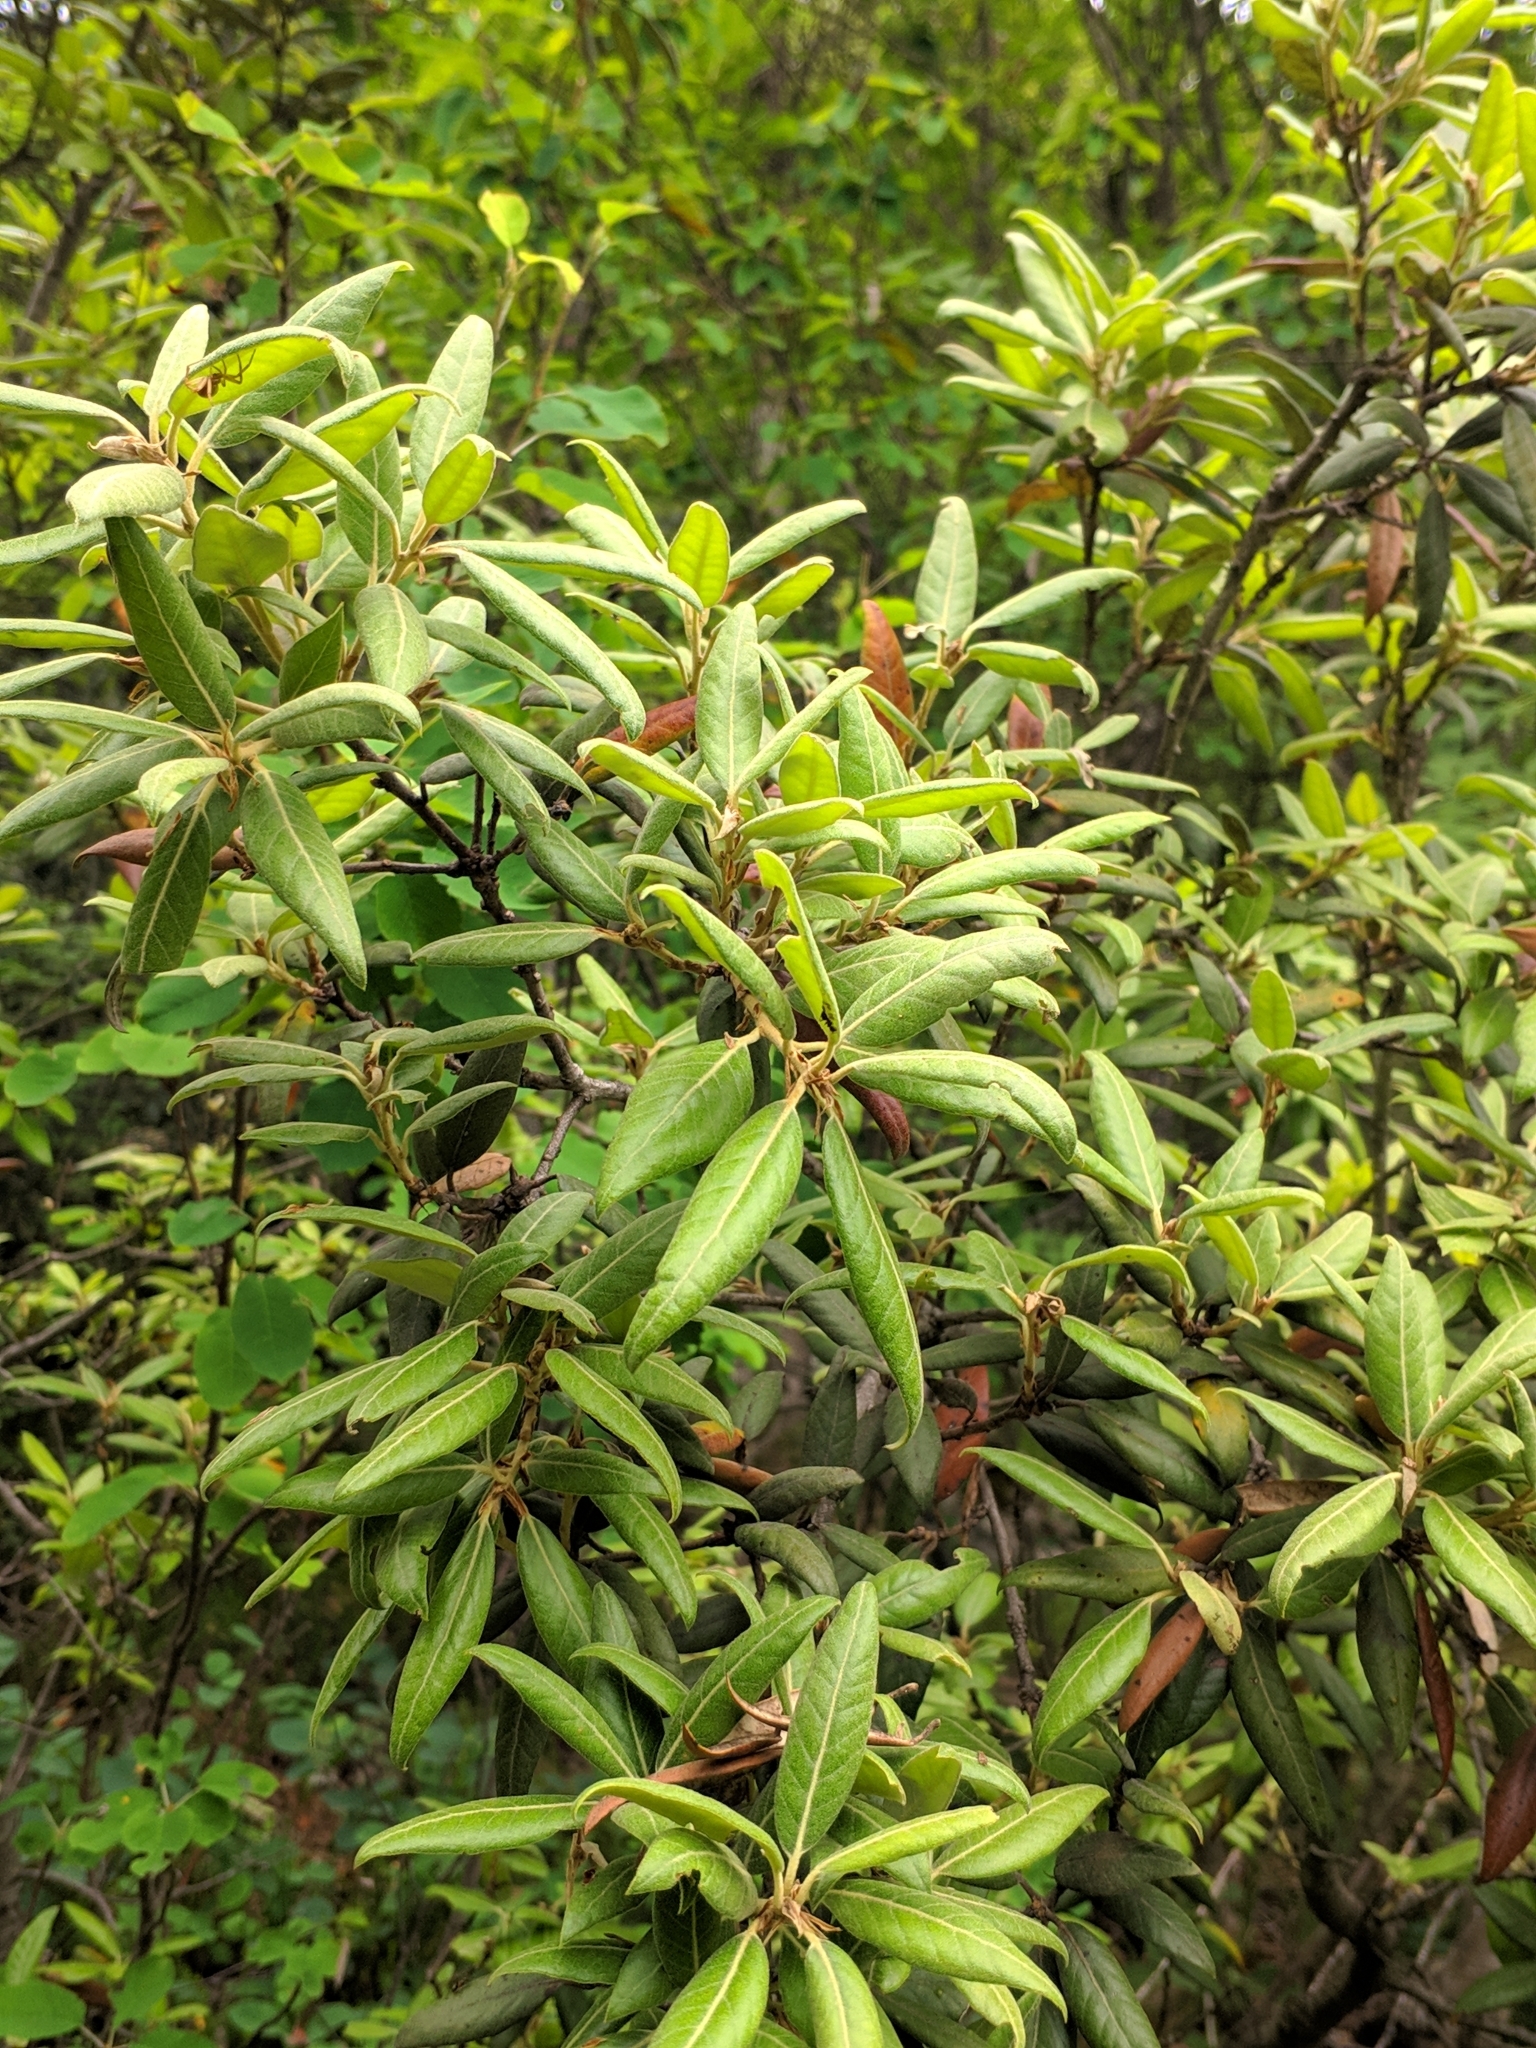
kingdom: Plantae
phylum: Tracheophyta
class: Magnoliopsida
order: Fagales
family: Fagaceae
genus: Quercus
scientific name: Quercus ilex
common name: Evergreen oak
